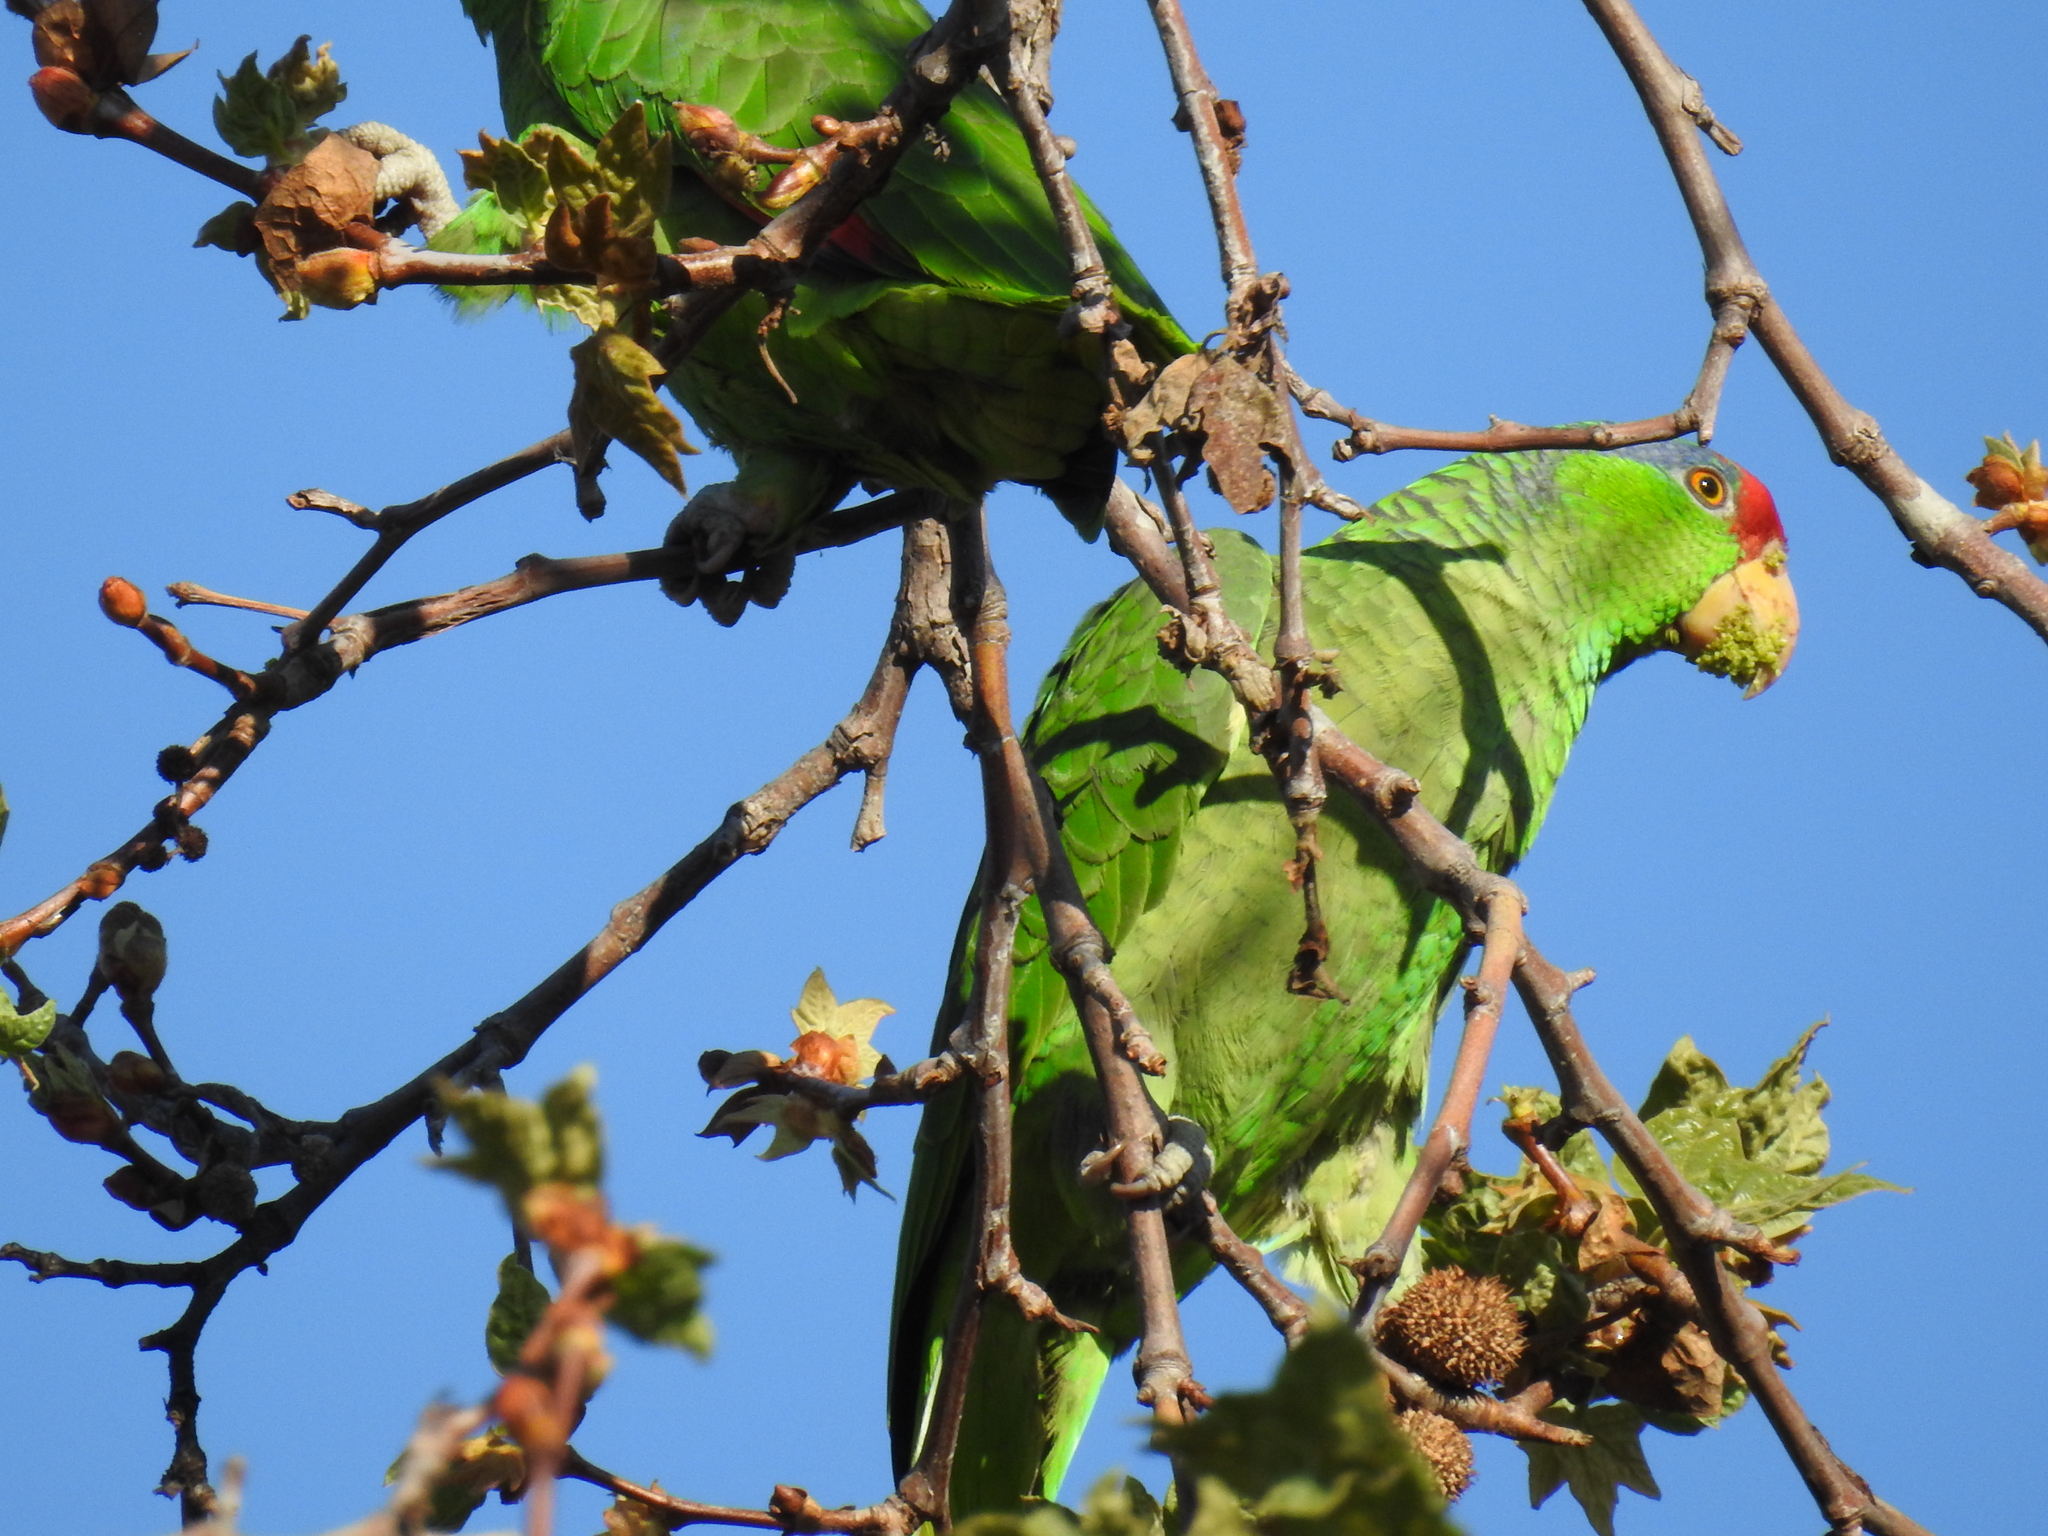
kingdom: Animalia
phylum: Chordata
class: Aves
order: Psittaciformes
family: Psittacidae
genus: Amazona
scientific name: Amazona viridigenalis
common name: Red-crowned amazon
